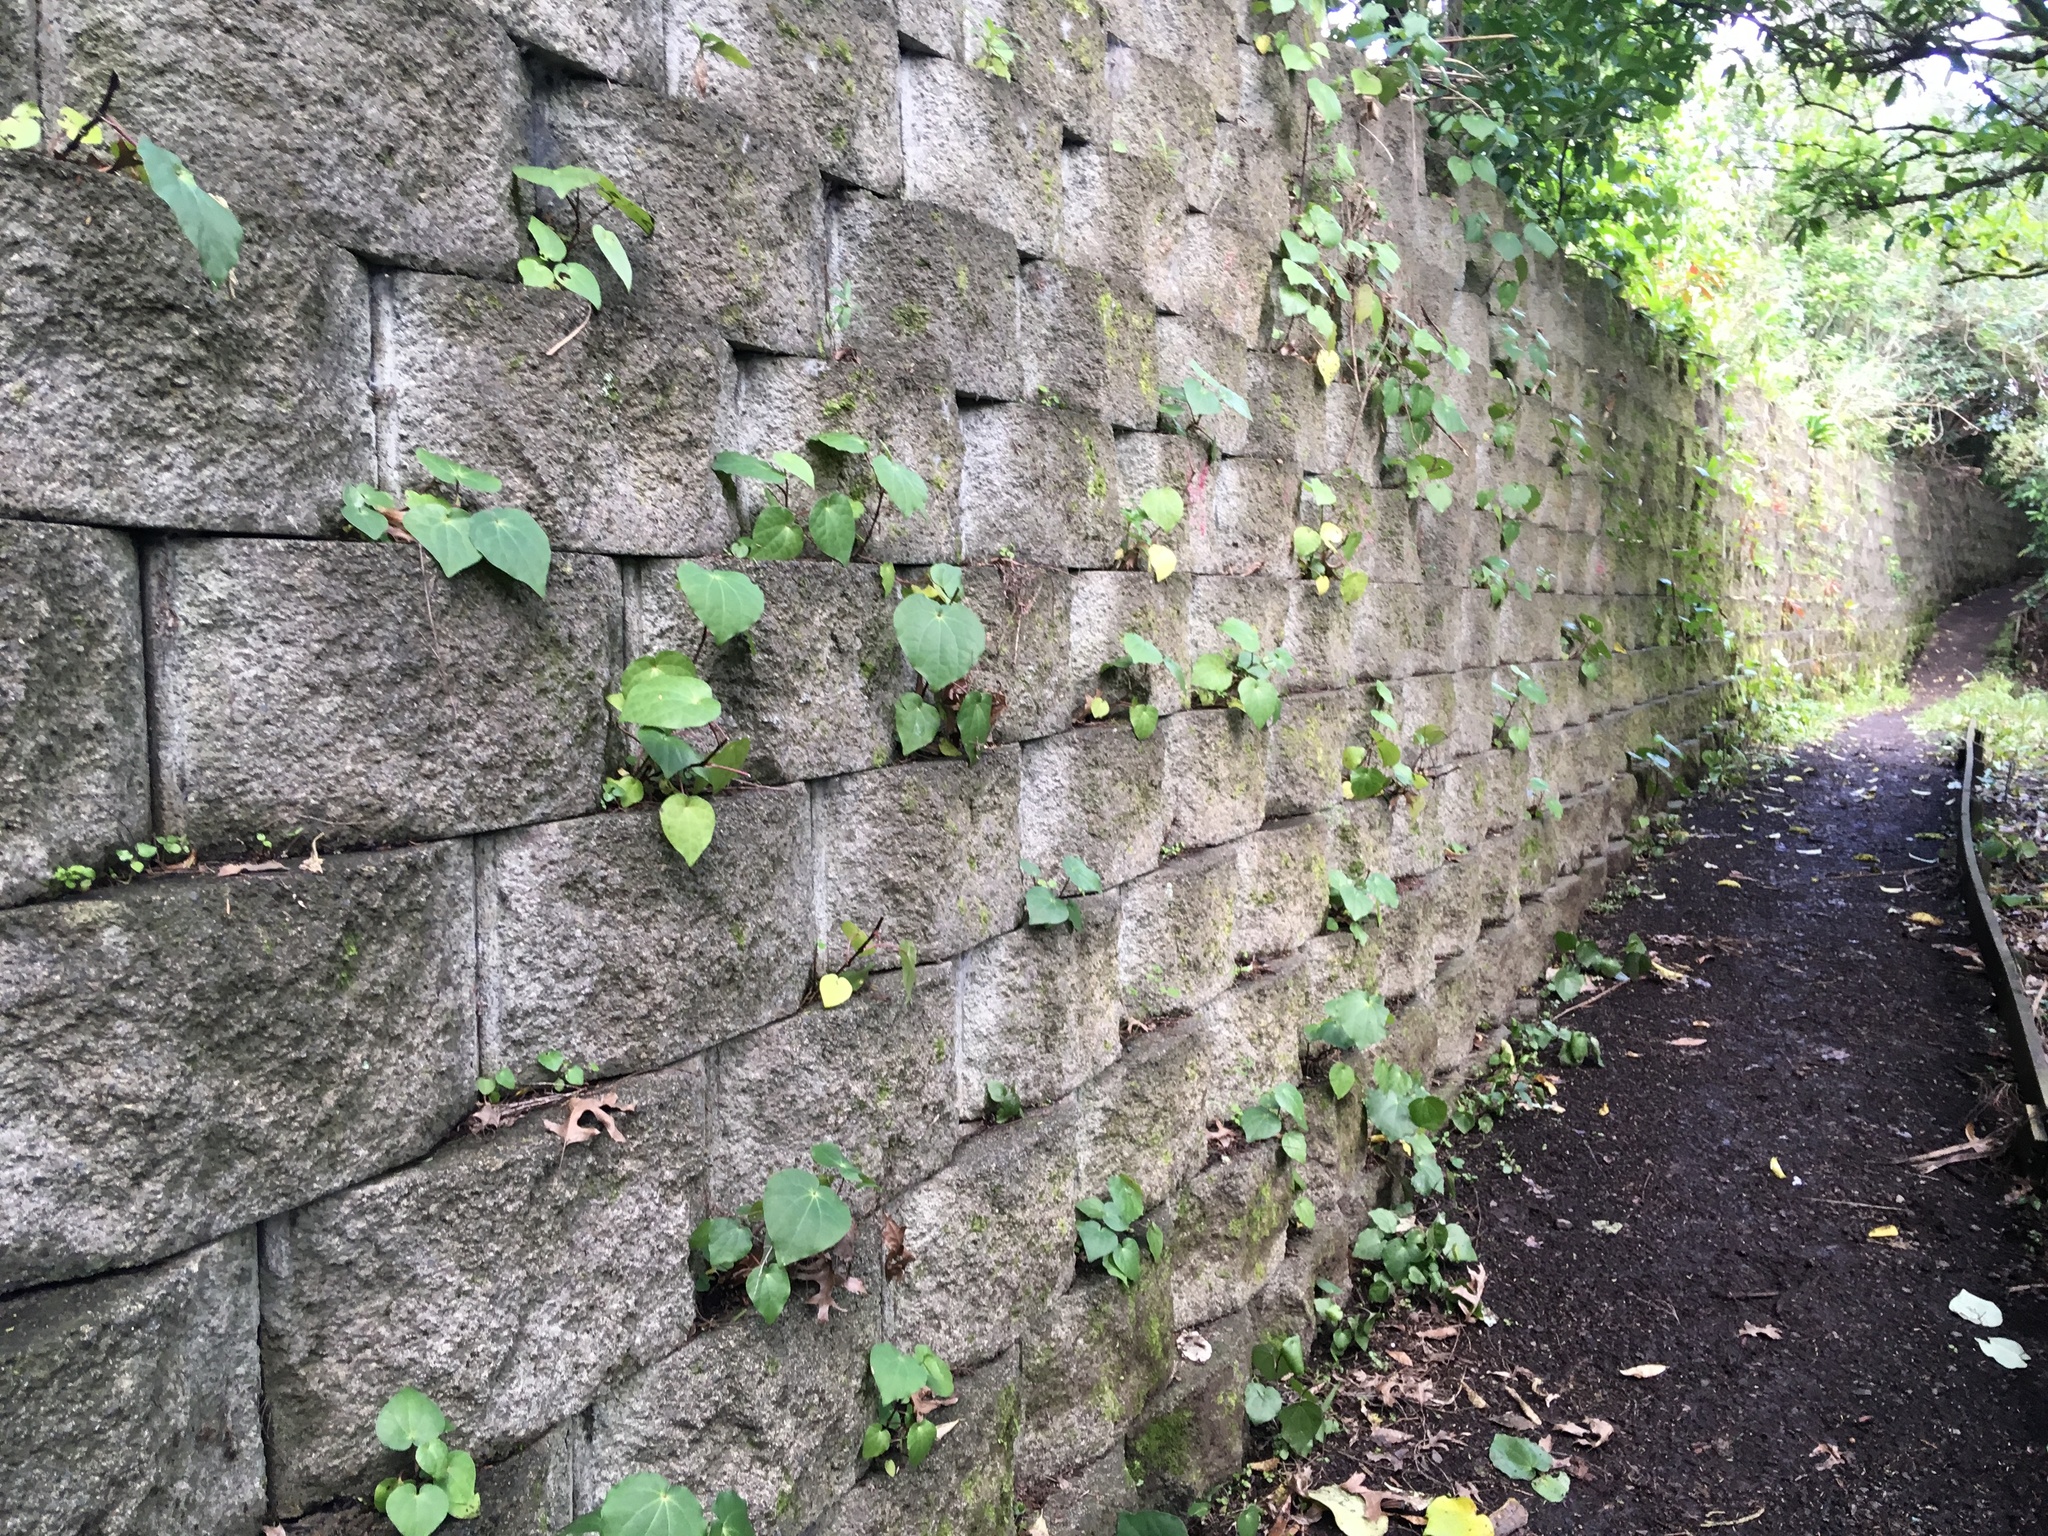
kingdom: Plantae
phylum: Tracheophyta
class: Magnoliopsida
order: Piperales
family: Piperaceae
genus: Macropiper
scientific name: Macropiper excelsum
